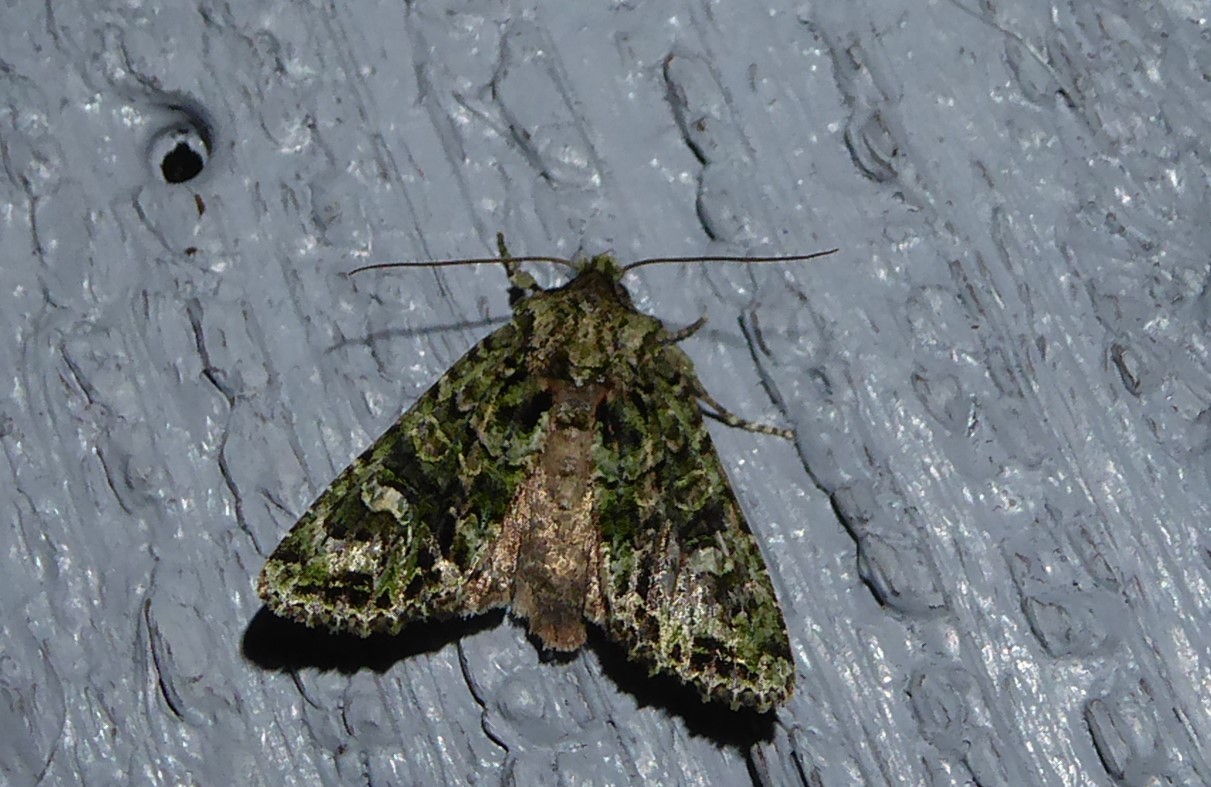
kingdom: Animalia
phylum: Arthropoda
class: Insecta
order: Lepidoptera
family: Noctuidae
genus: Ichneutica
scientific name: Ichneutica
